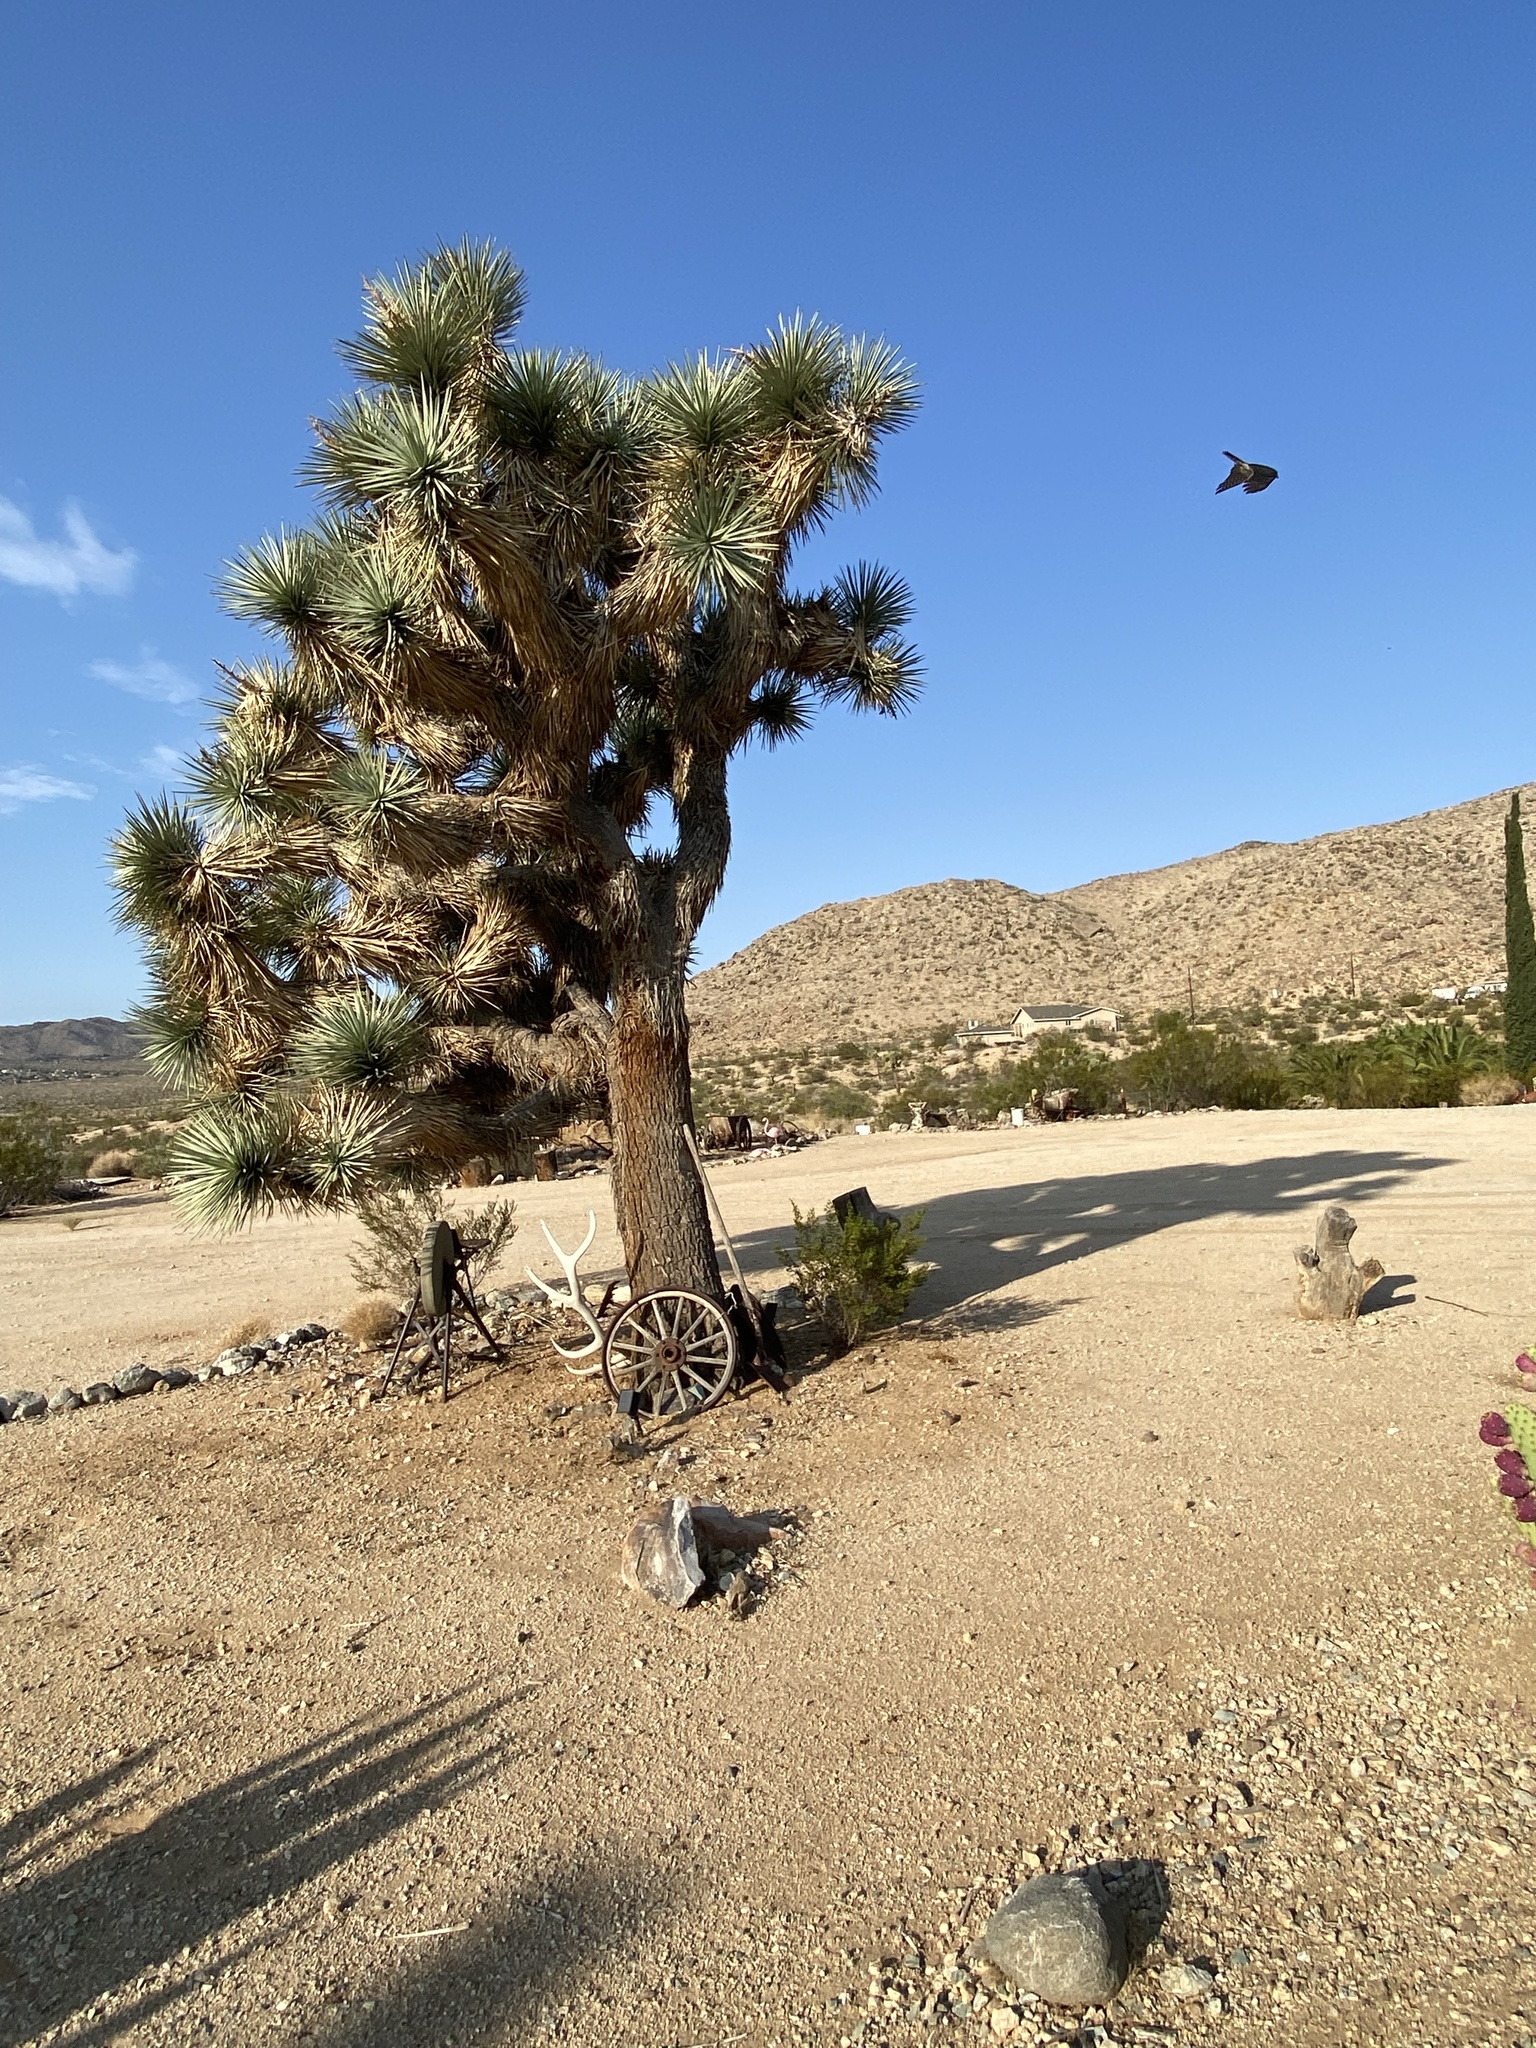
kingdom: Animalia
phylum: Chordata
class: Aves
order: Accipitriformes
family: Accipitridae
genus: Accipiter
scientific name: Accipiter cooperii
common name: Cooper's hawk
